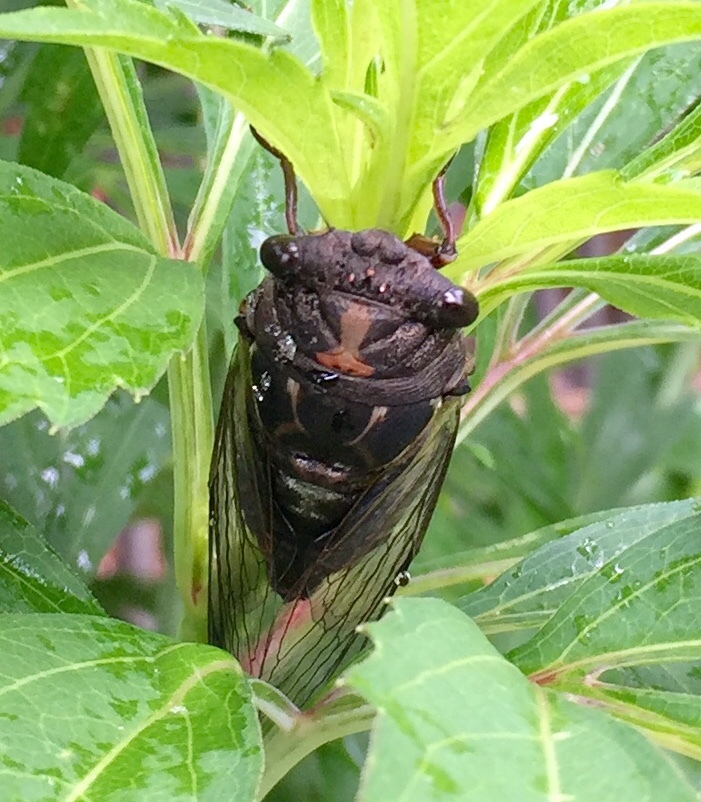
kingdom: Animalia
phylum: Arthropoda
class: Insecta
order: Hemiptera
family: Cicadidae
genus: Neotibicen
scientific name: Neotibicen lyricen
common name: Lyric cicada
